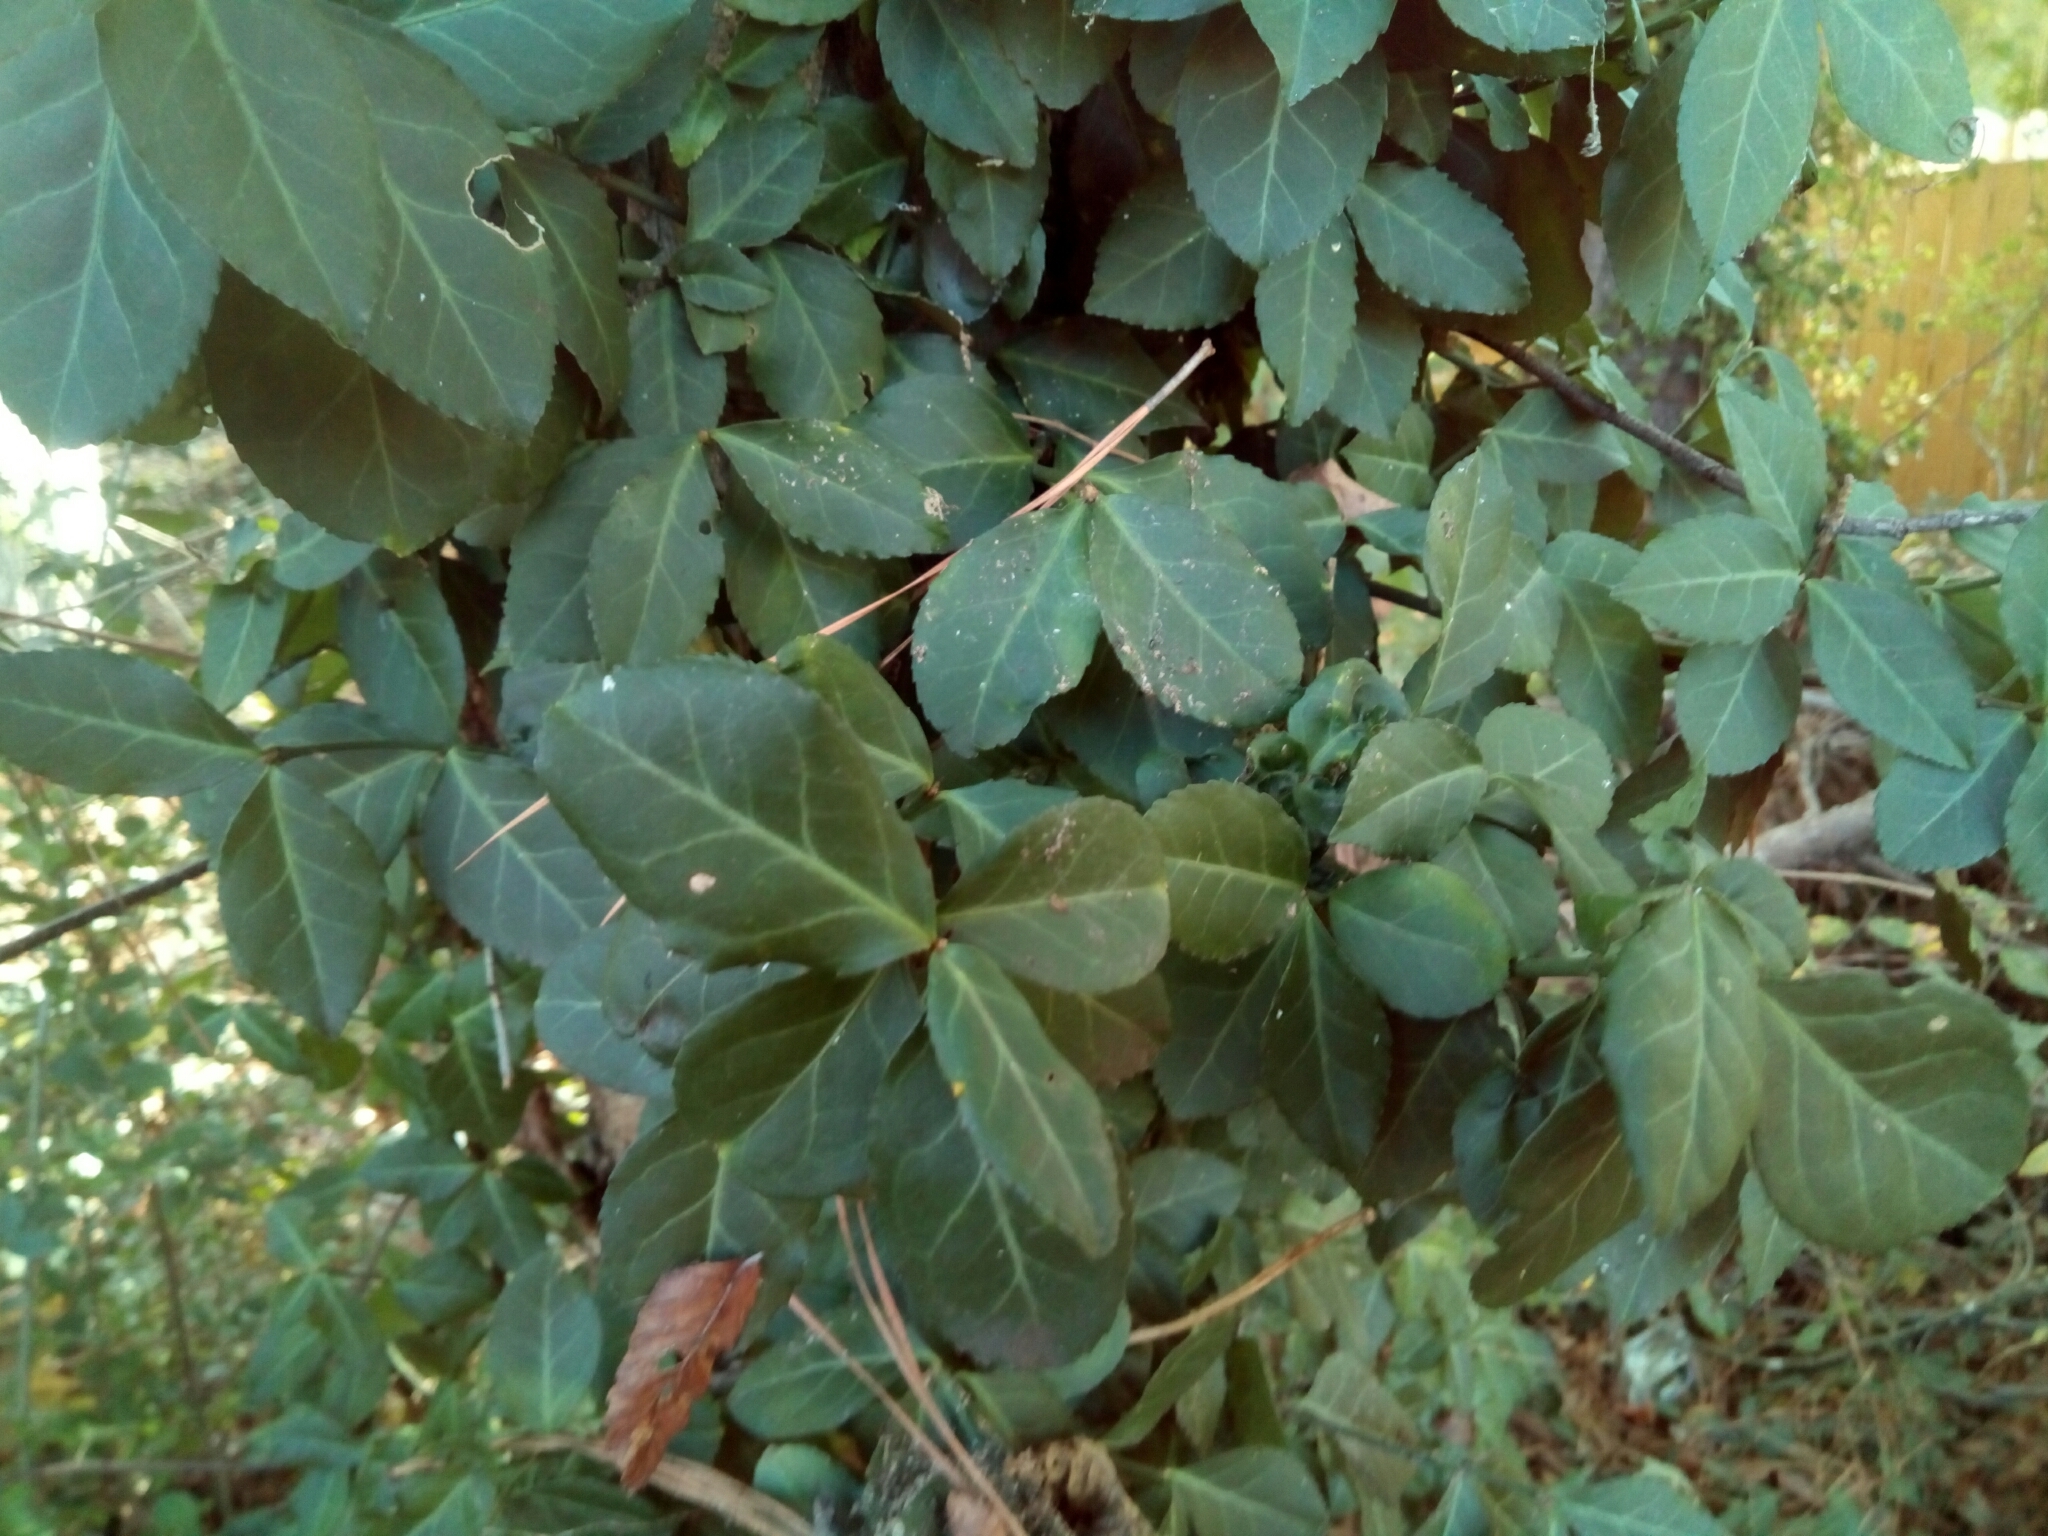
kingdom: Plantae
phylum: Tracheophyta
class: Magnoliopsida
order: Celastrales
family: Celastraceae
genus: Euonymus
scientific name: Euonymus fortunei
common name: Climbing euonymus
